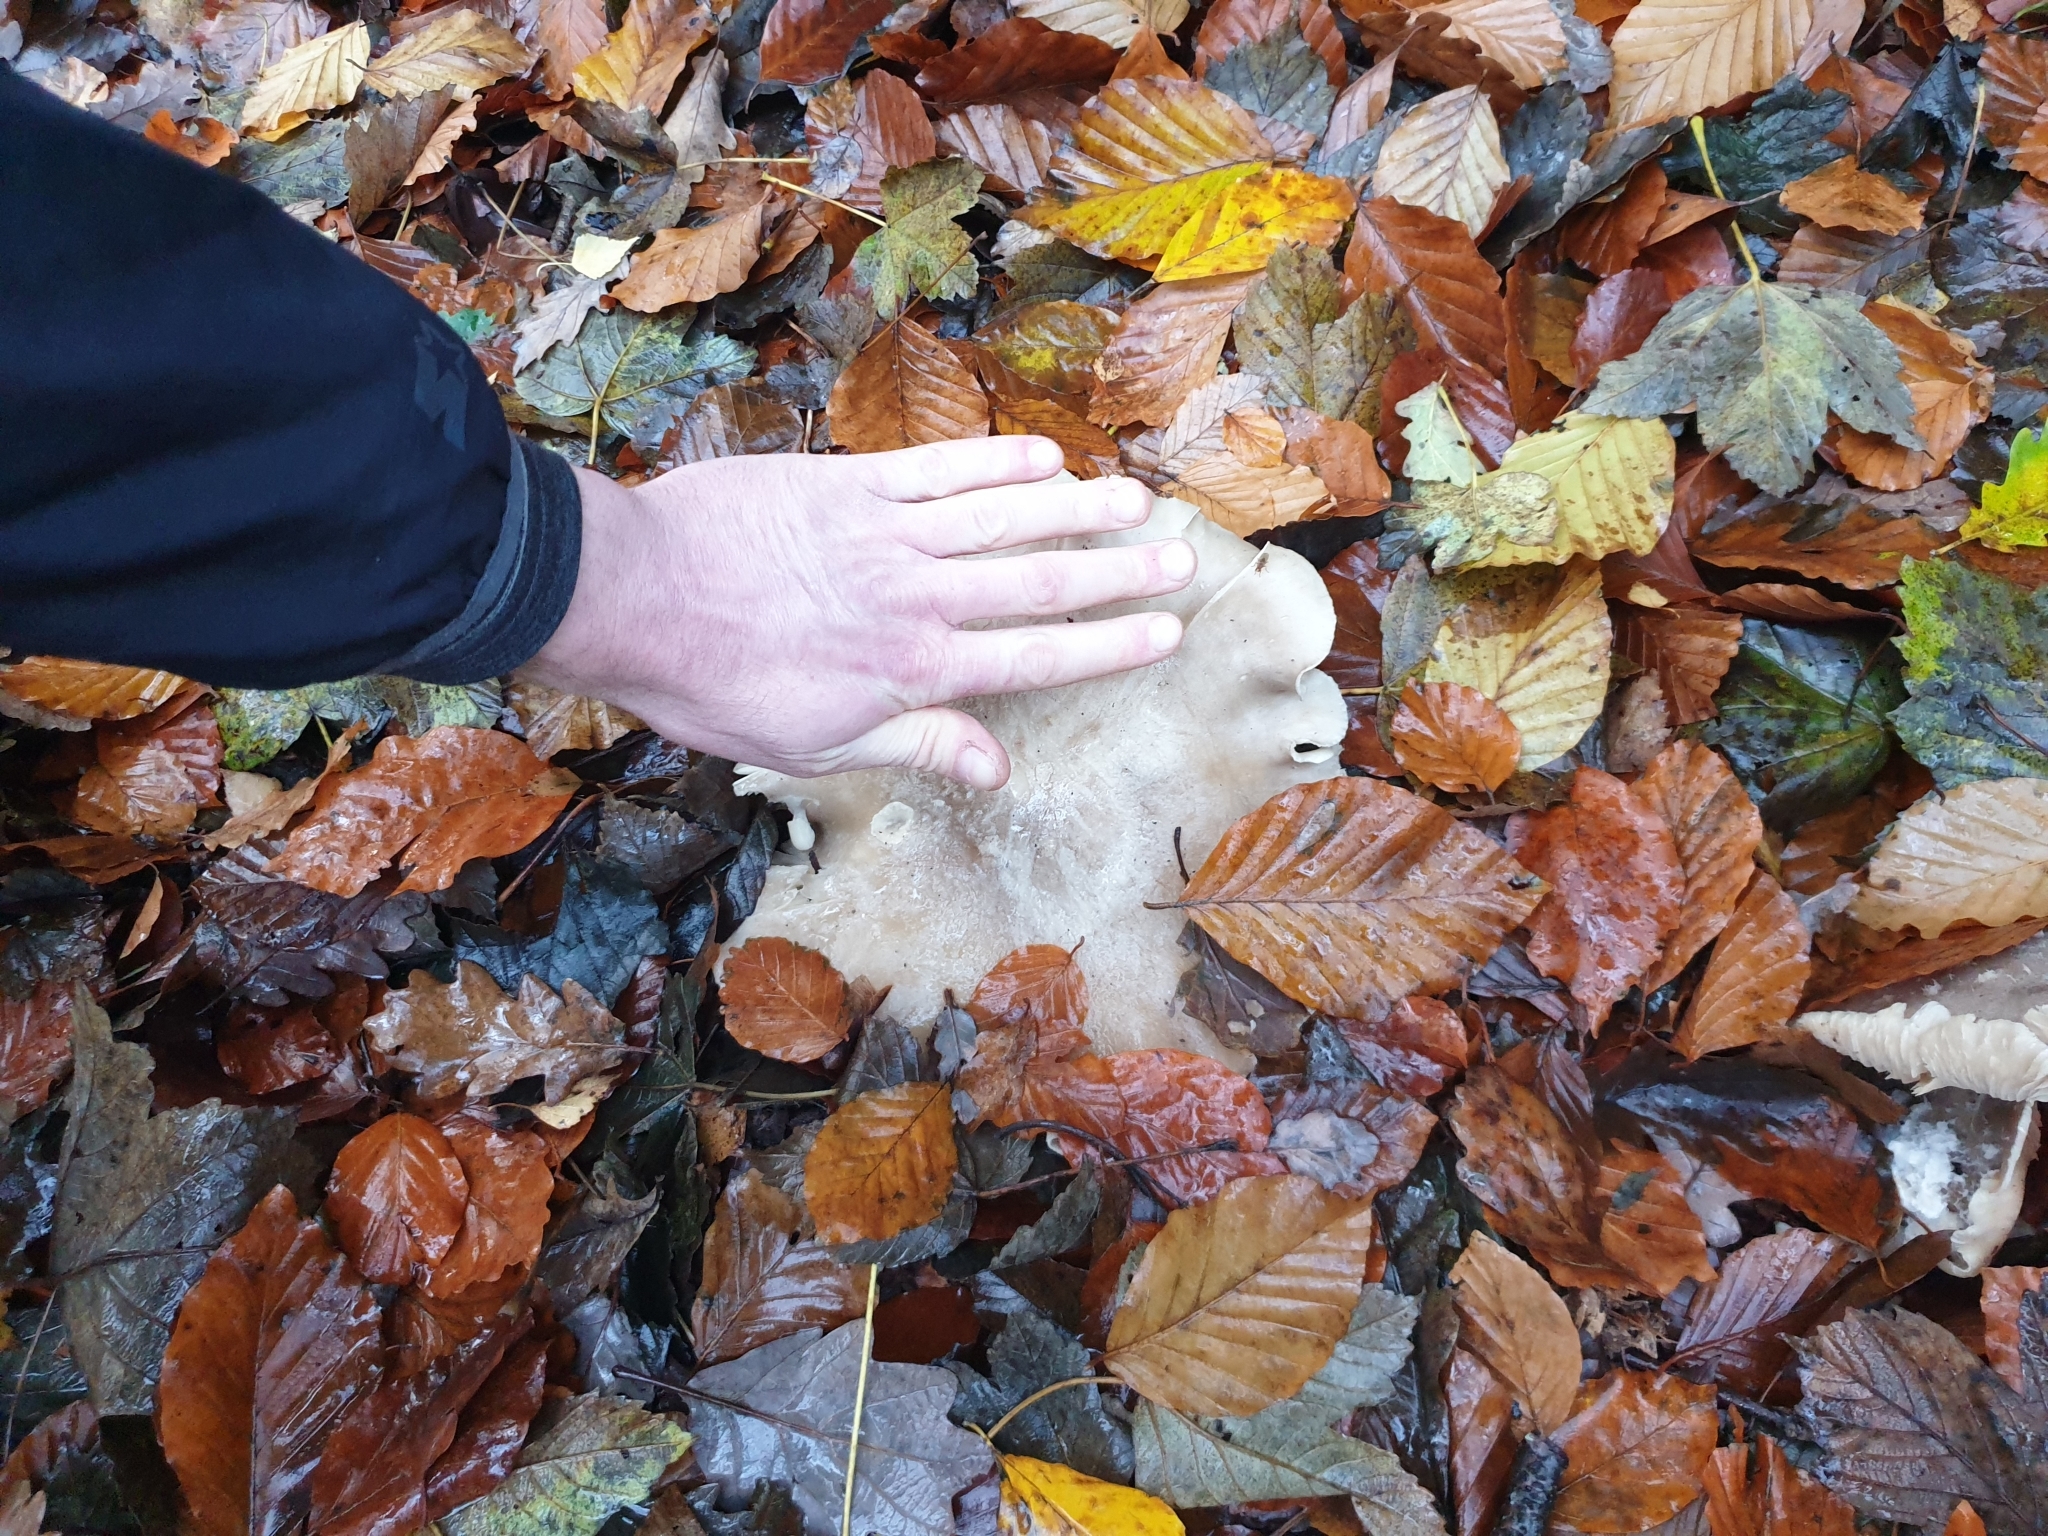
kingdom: Fungi
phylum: Basidiomycota
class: Agaricomycetes
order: Agaricales
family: Tricholomataceae
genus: Clitocybe
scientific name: Clitocybe nebularis
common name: Clouded agaric
